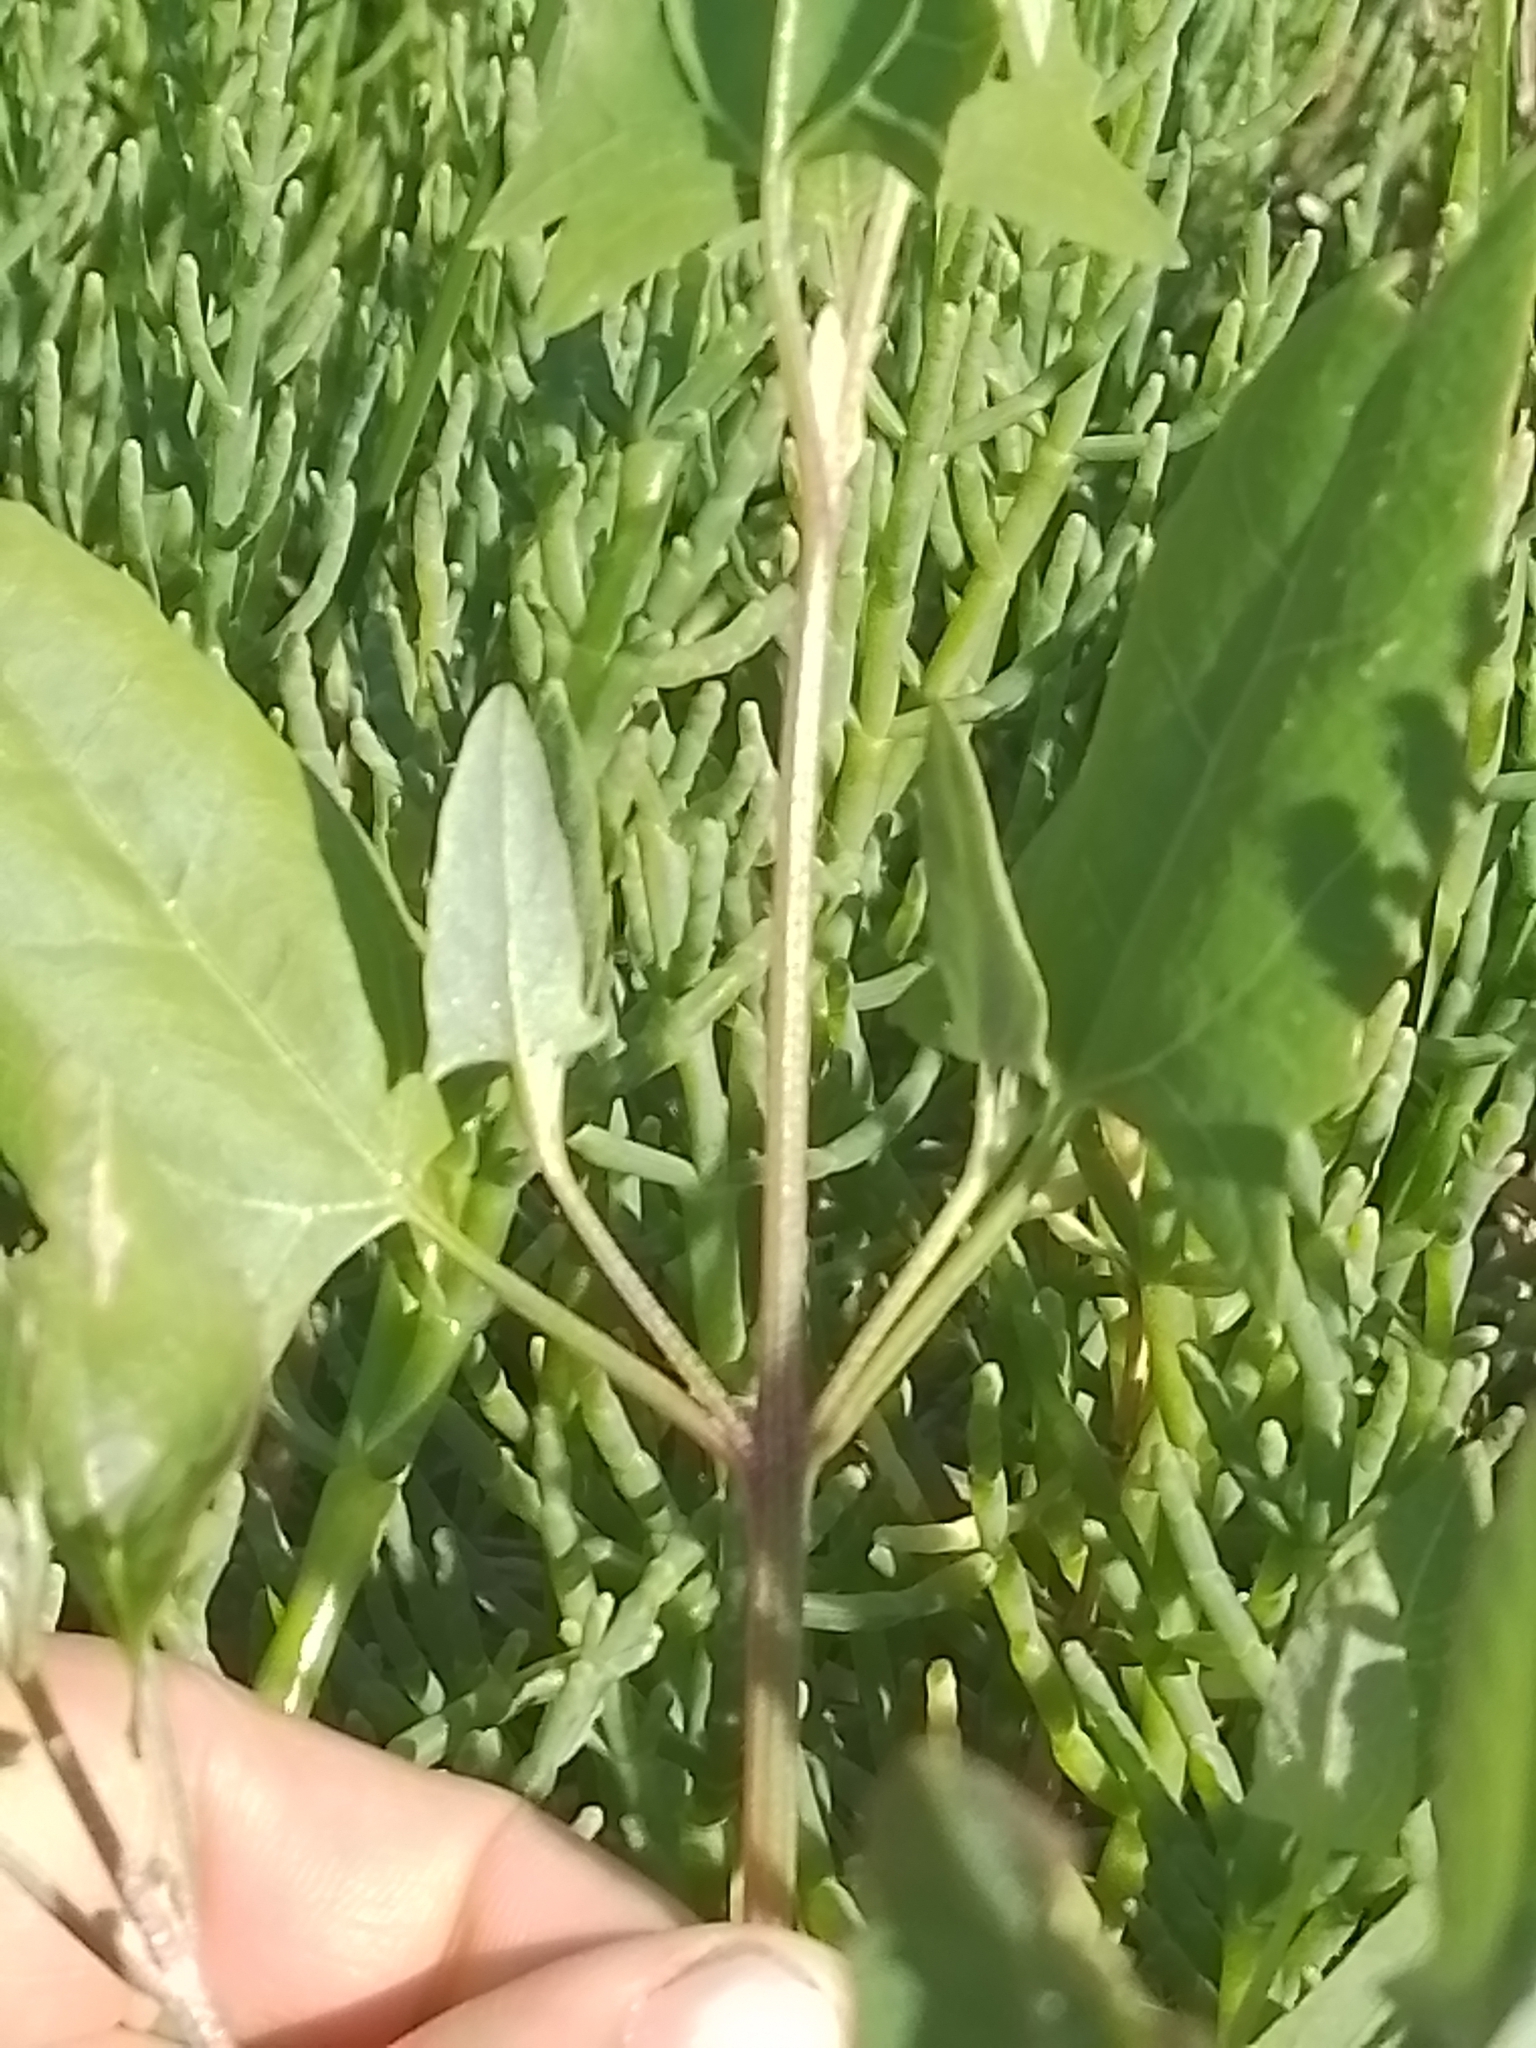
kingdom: Plantae
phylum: Tracheophyta
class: Magnoliopsida
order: Caryophyllales
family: Amaranthaceae
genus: Atriplex
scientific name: Atriplex prostrata
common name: Spear-leaved orache
